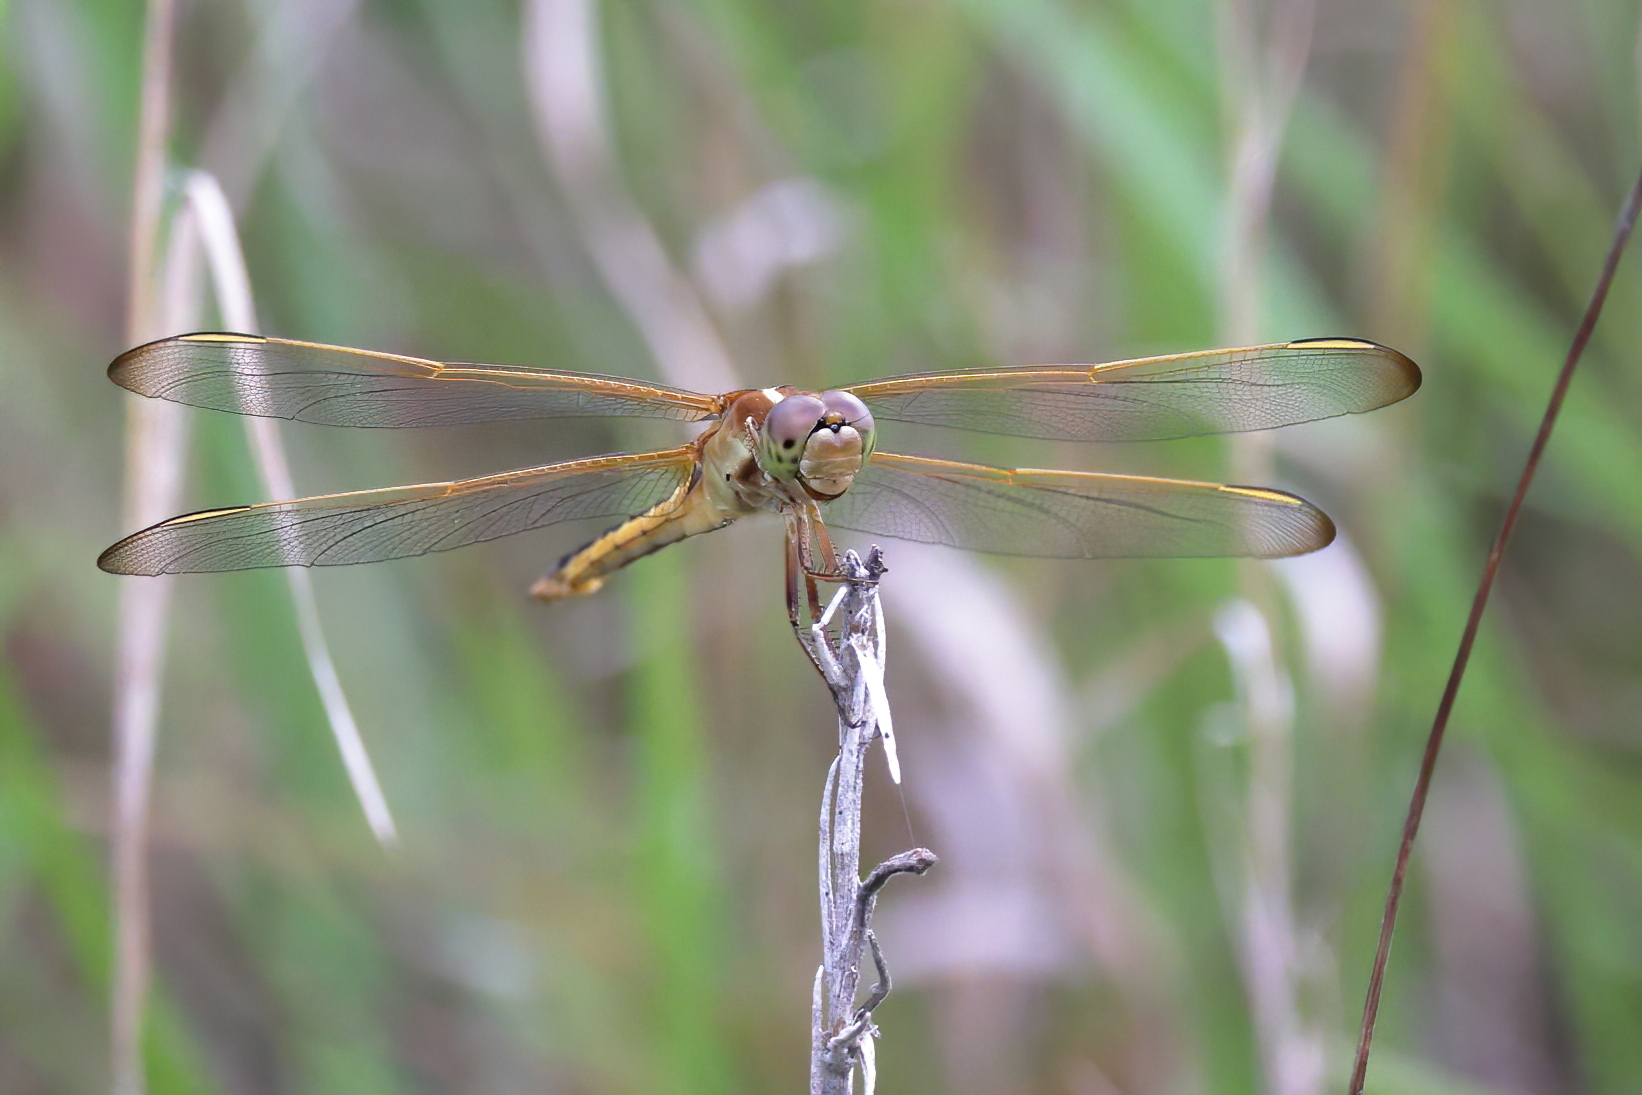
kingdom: Animalia
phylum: Arthropoda
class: Insecta
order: Odonata
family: Libellulidae
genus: Libellula
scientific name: Libellula needhami
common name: Needham's skimmer
